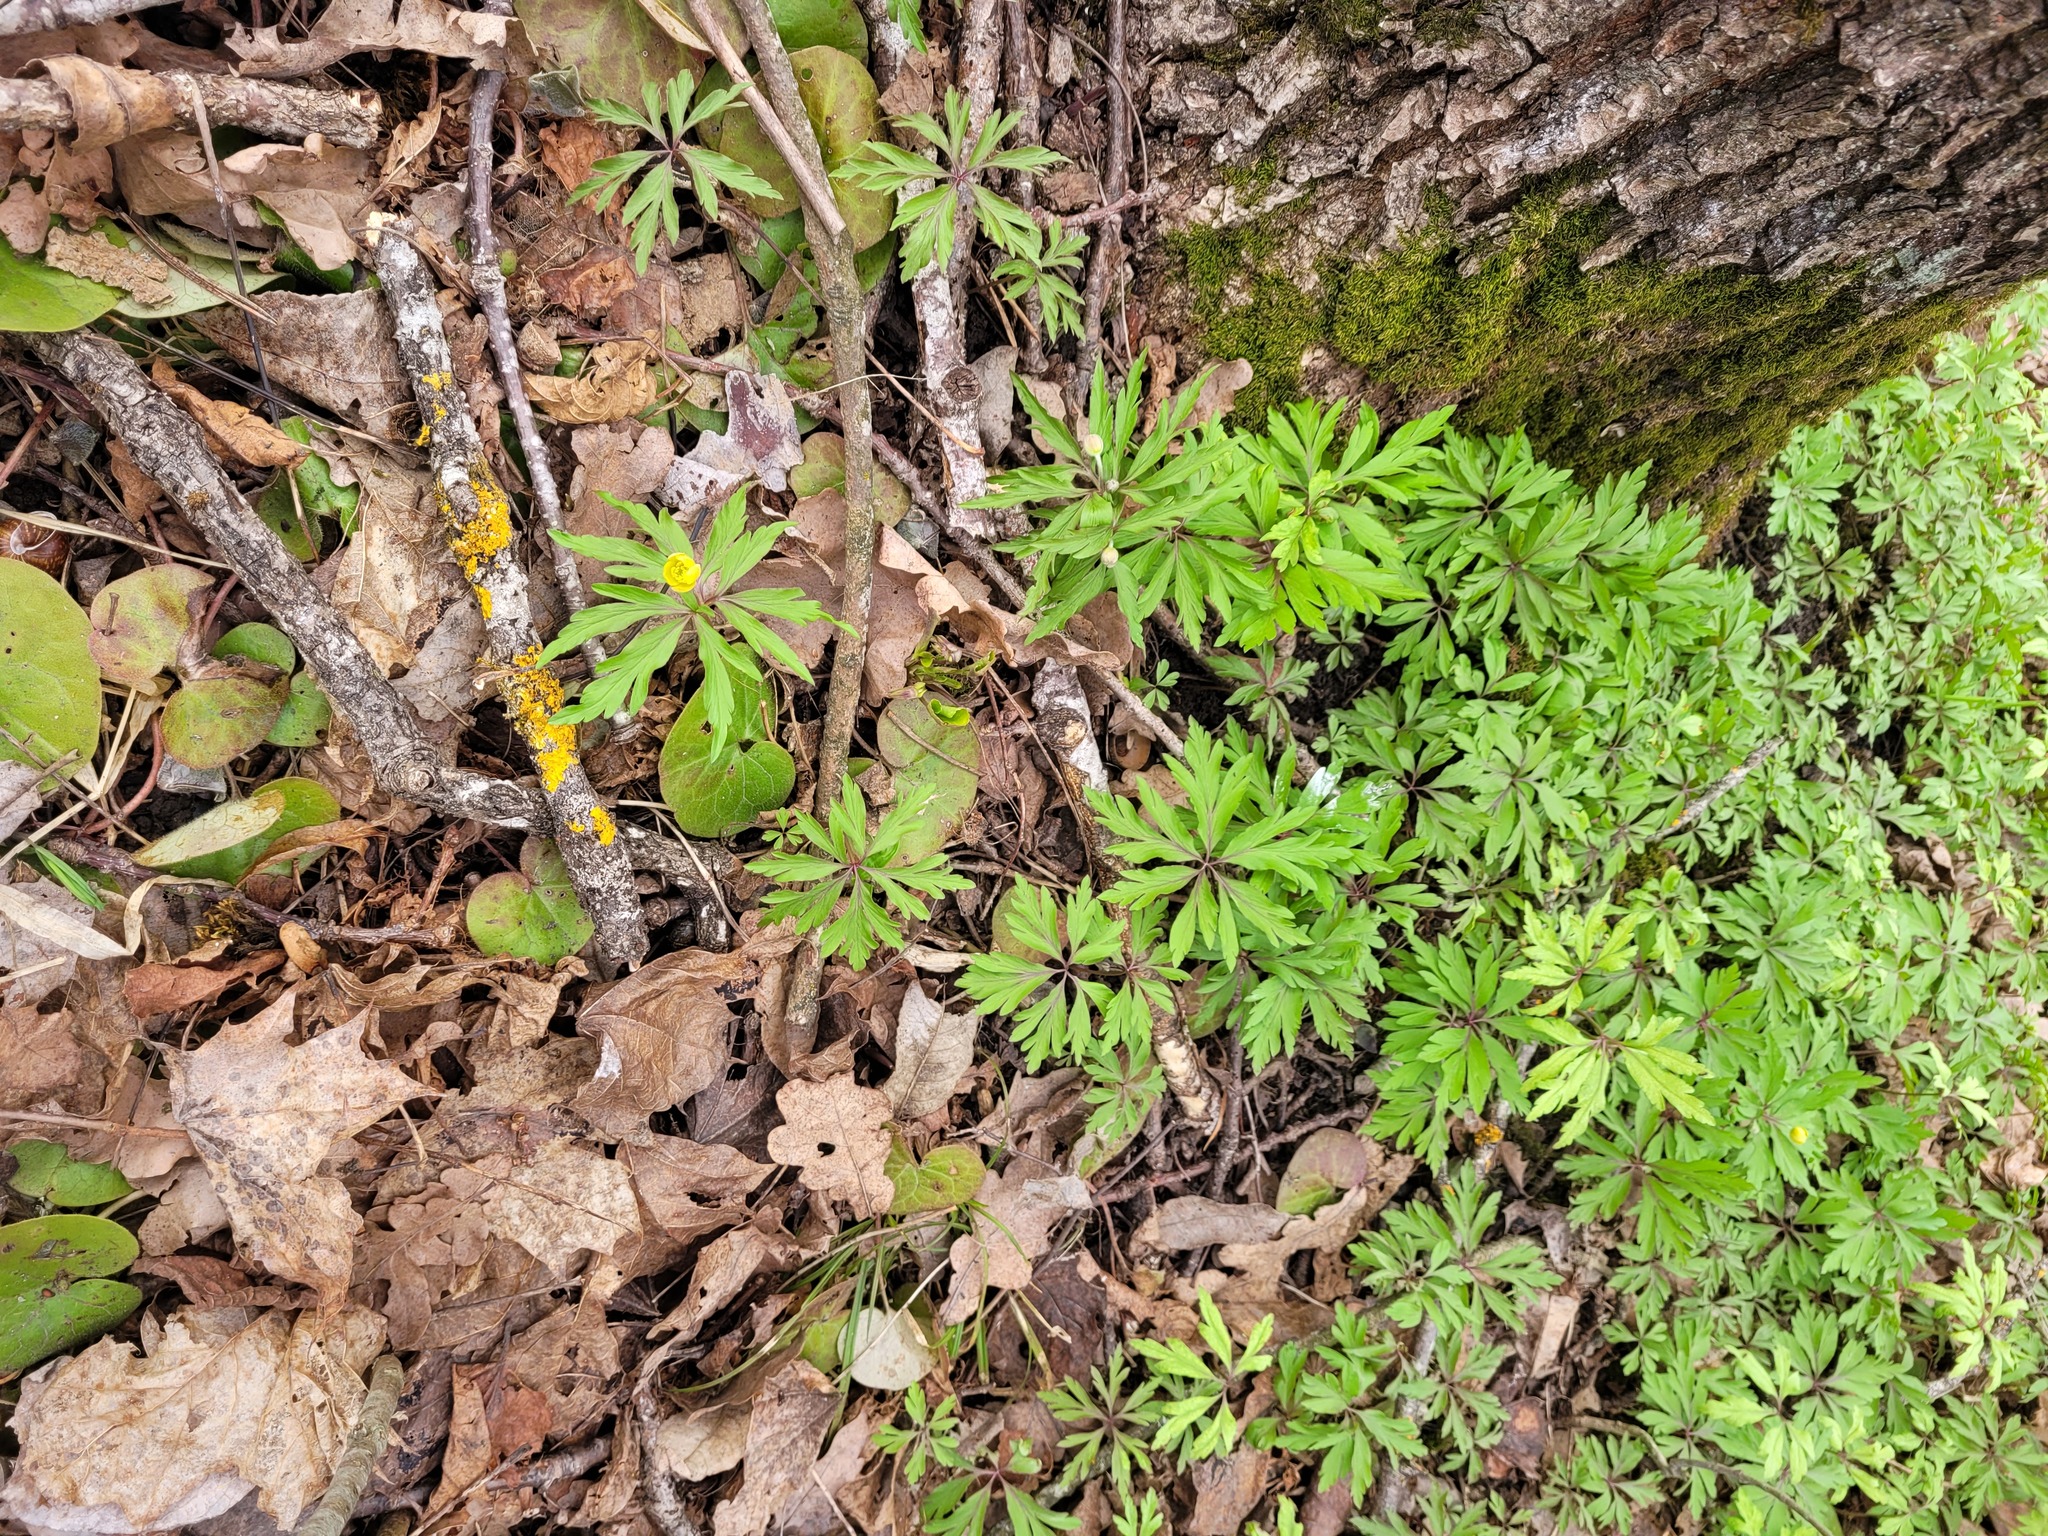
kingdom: Plantae
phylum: Tracheophyta
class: Magnoliopsida
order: Ranunculales
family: Ranunculaceae
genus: Anemone
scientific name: Anemone ranunculoides
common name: Yellow anemone
